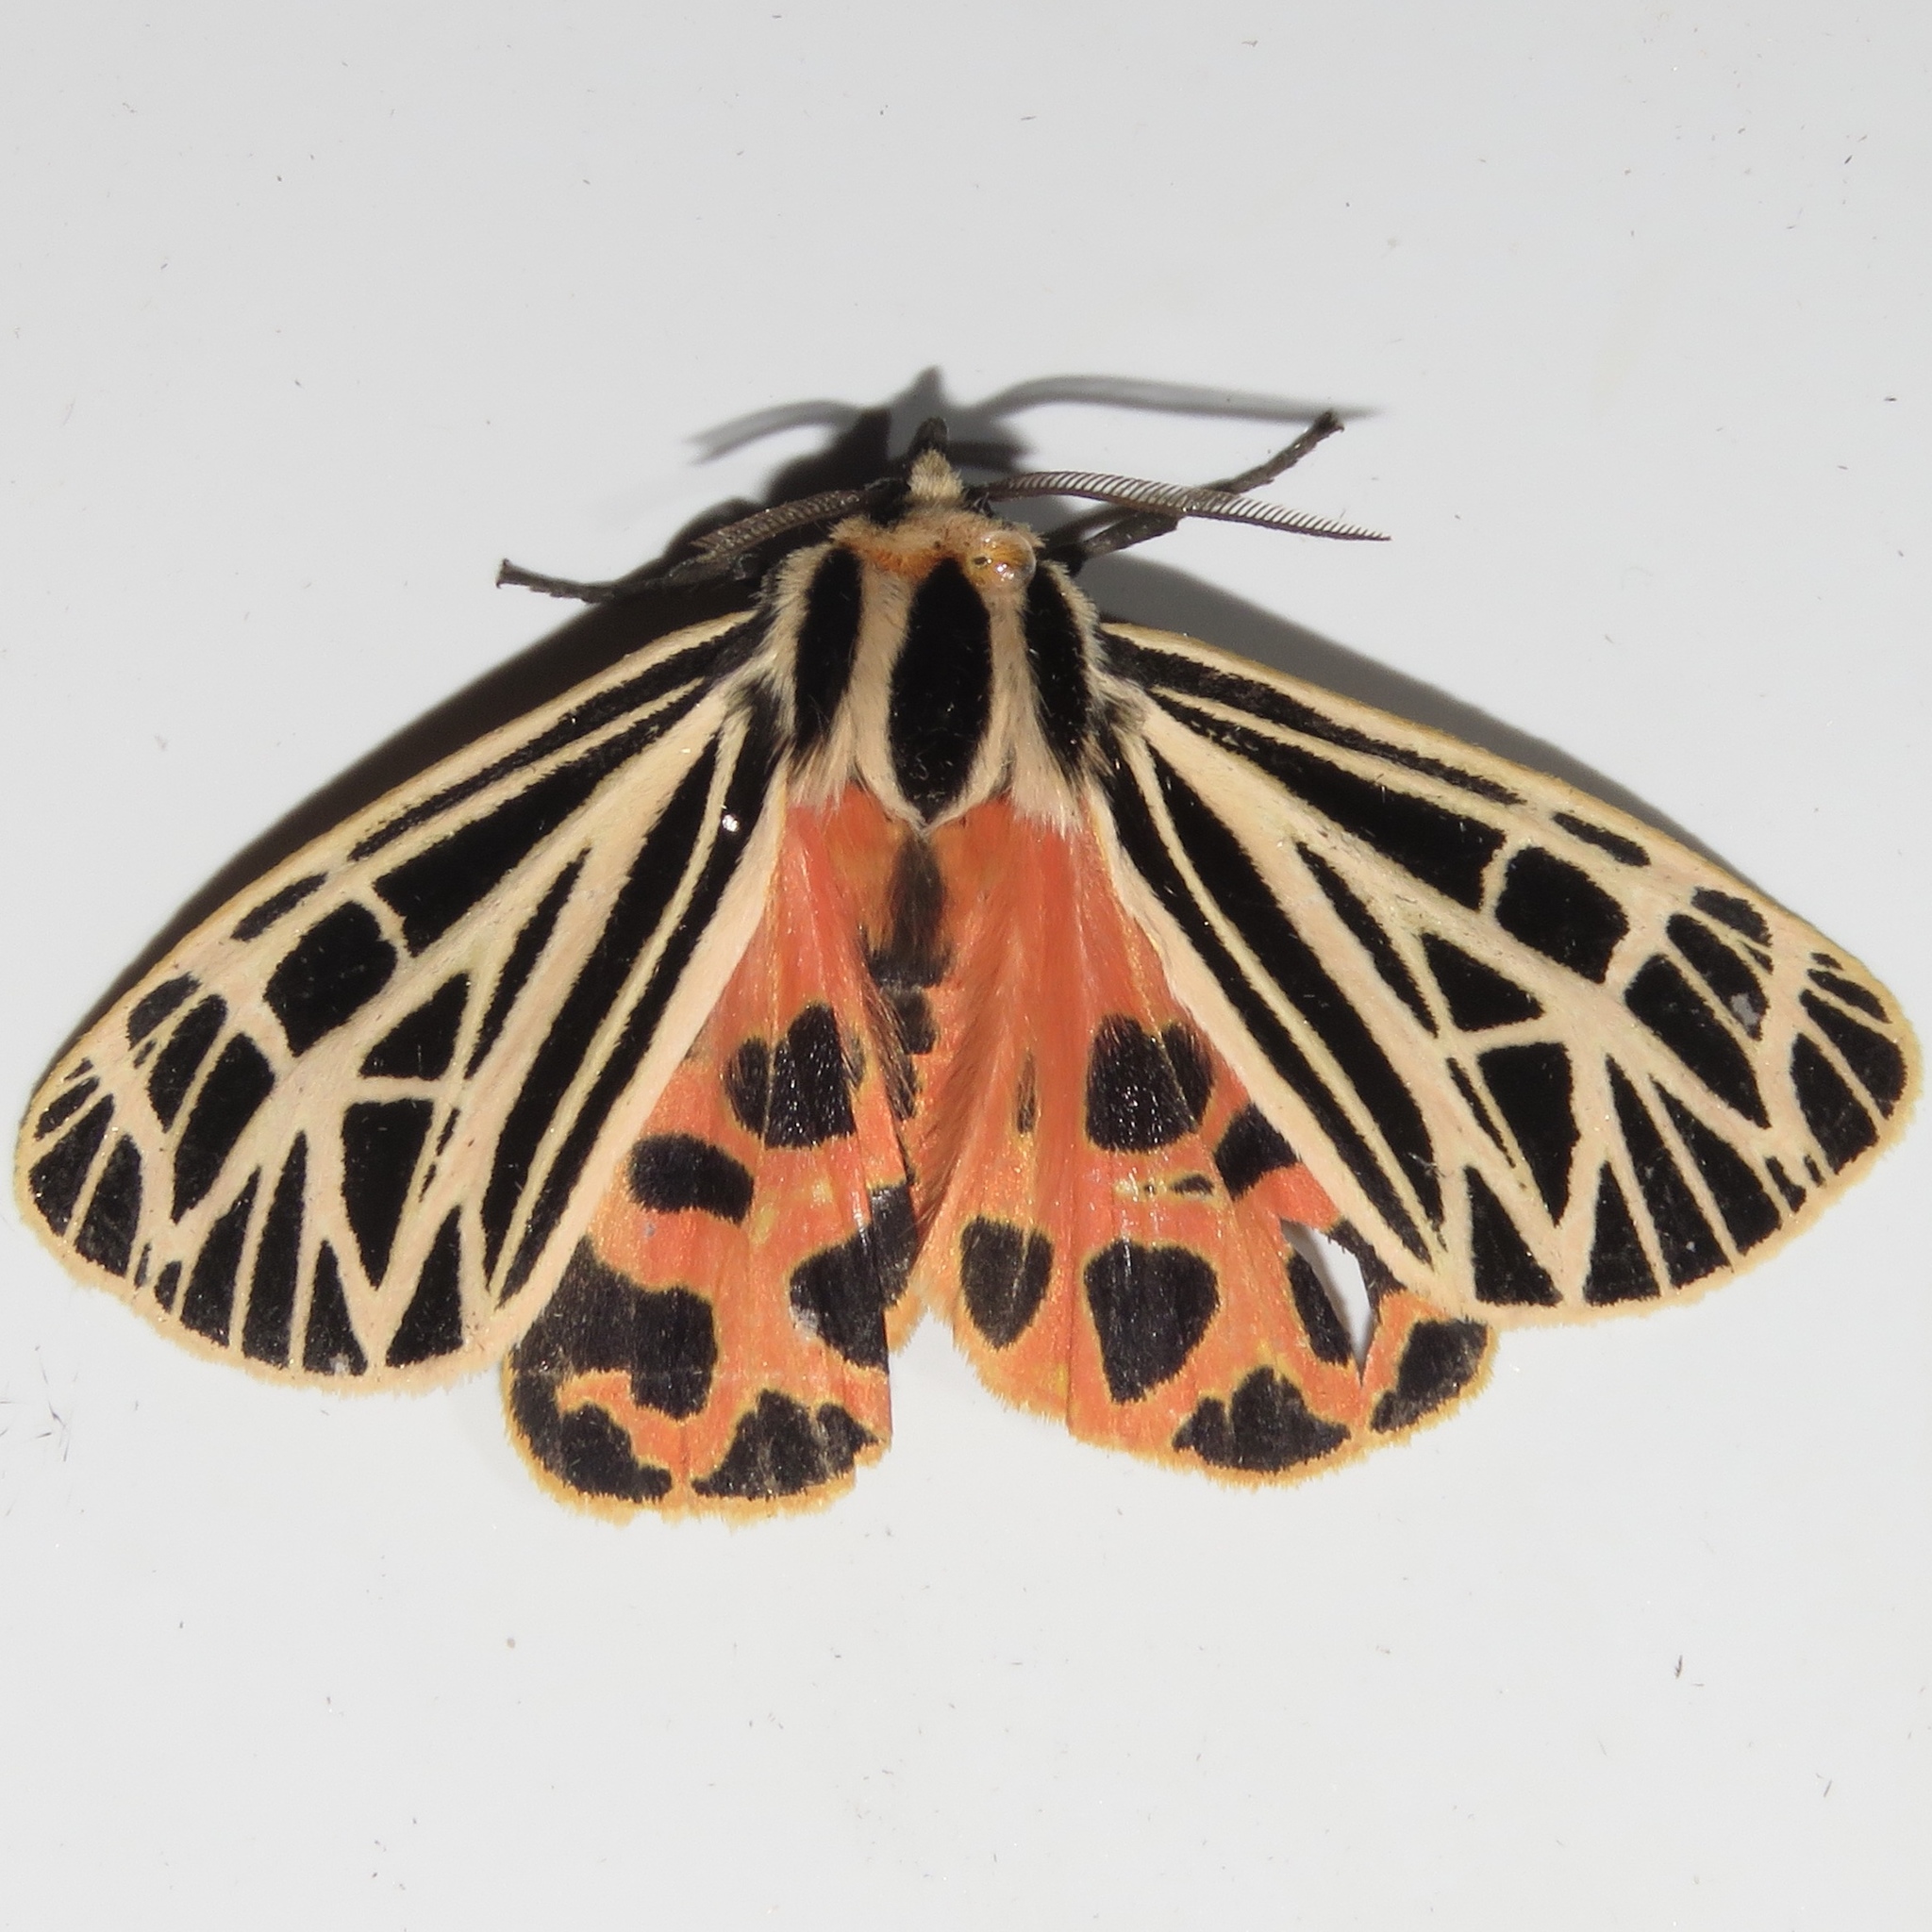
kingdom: Animalia
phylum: Arthropoda
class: Insecta
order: Lepidoptera
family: Erebidae
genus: Grammia
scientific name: Grammia virgo
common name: Virgin tiger moth
